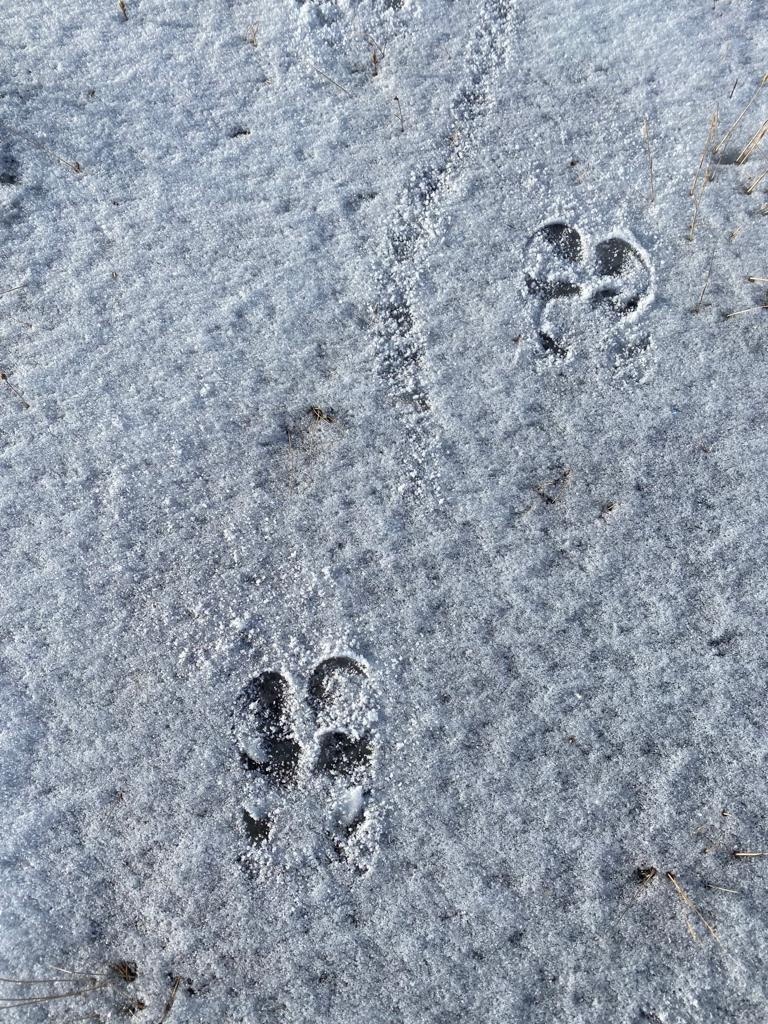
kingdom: Animalia
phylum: Chordata
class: Mammalia
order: Artiodactyla
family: Cervidae
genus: Rangifer
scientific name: Rangifer tarandus
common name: Reindeer
